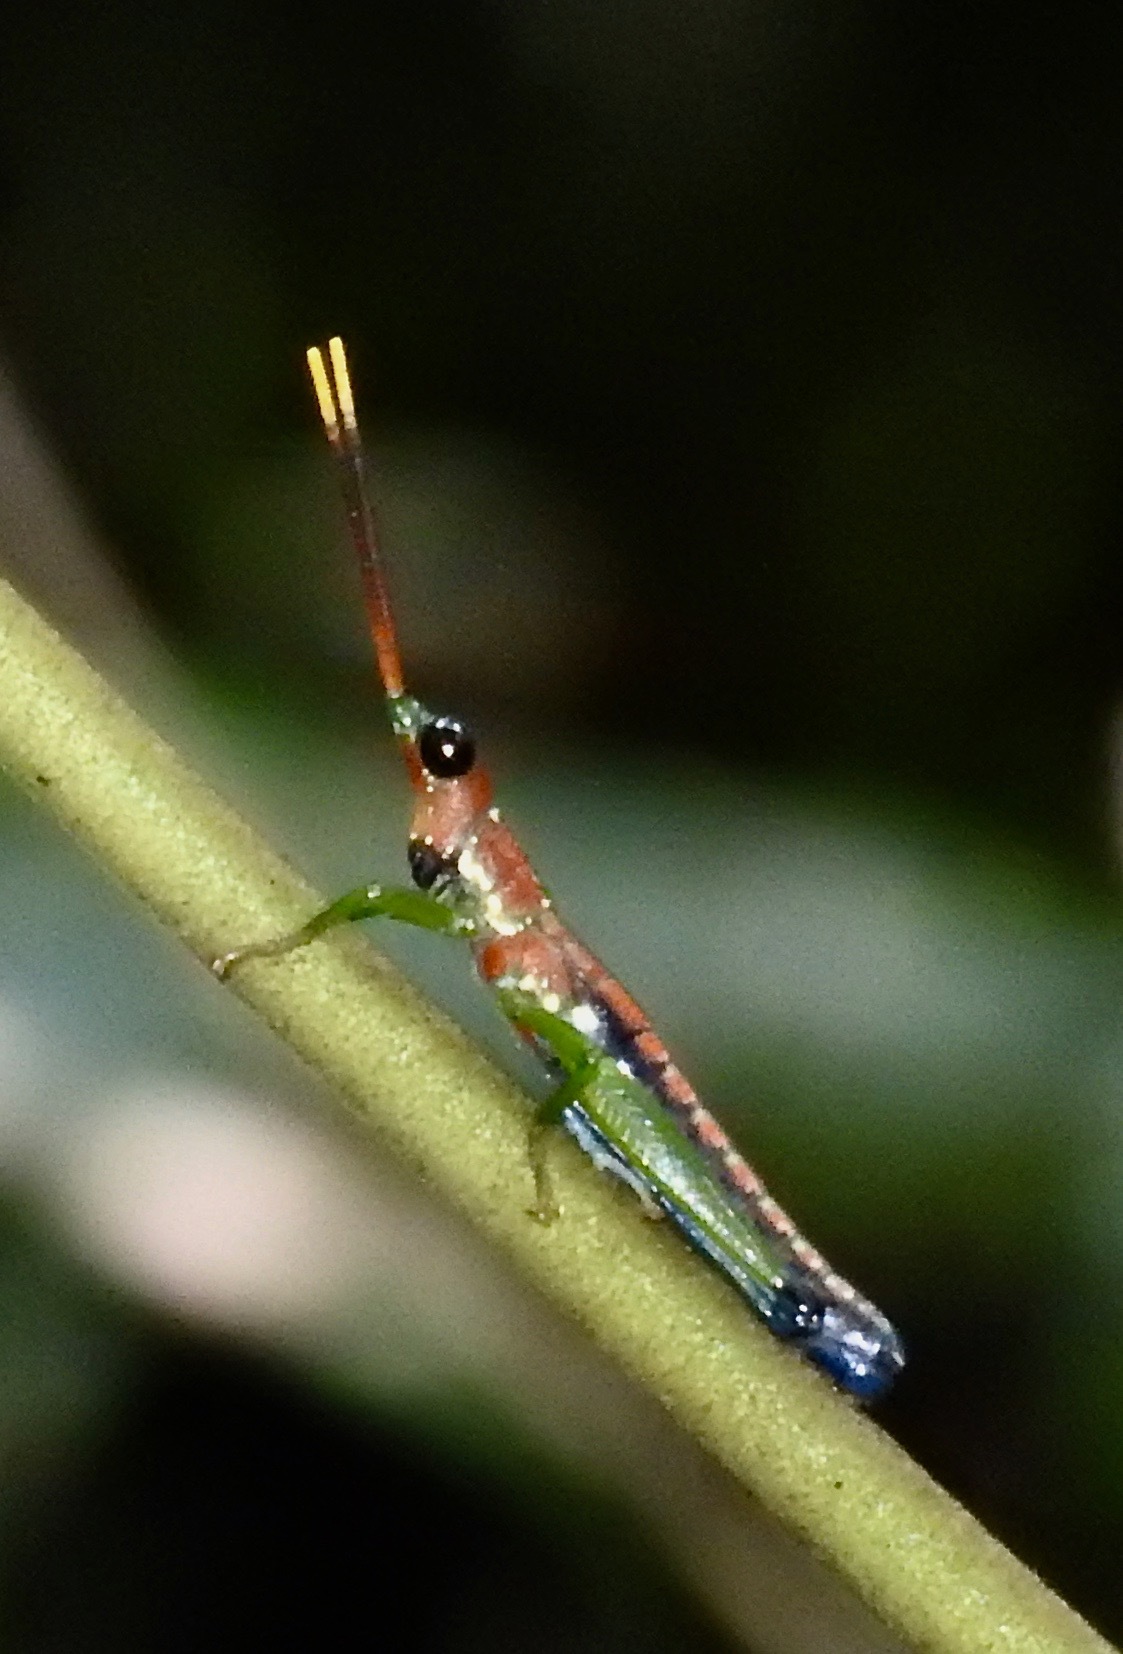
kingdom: Animalia
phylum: Arthropoda
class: Insecta
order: Orthoptera
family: Pyrgomorphidae
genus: Rakwana
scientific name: Rakwana ornata
